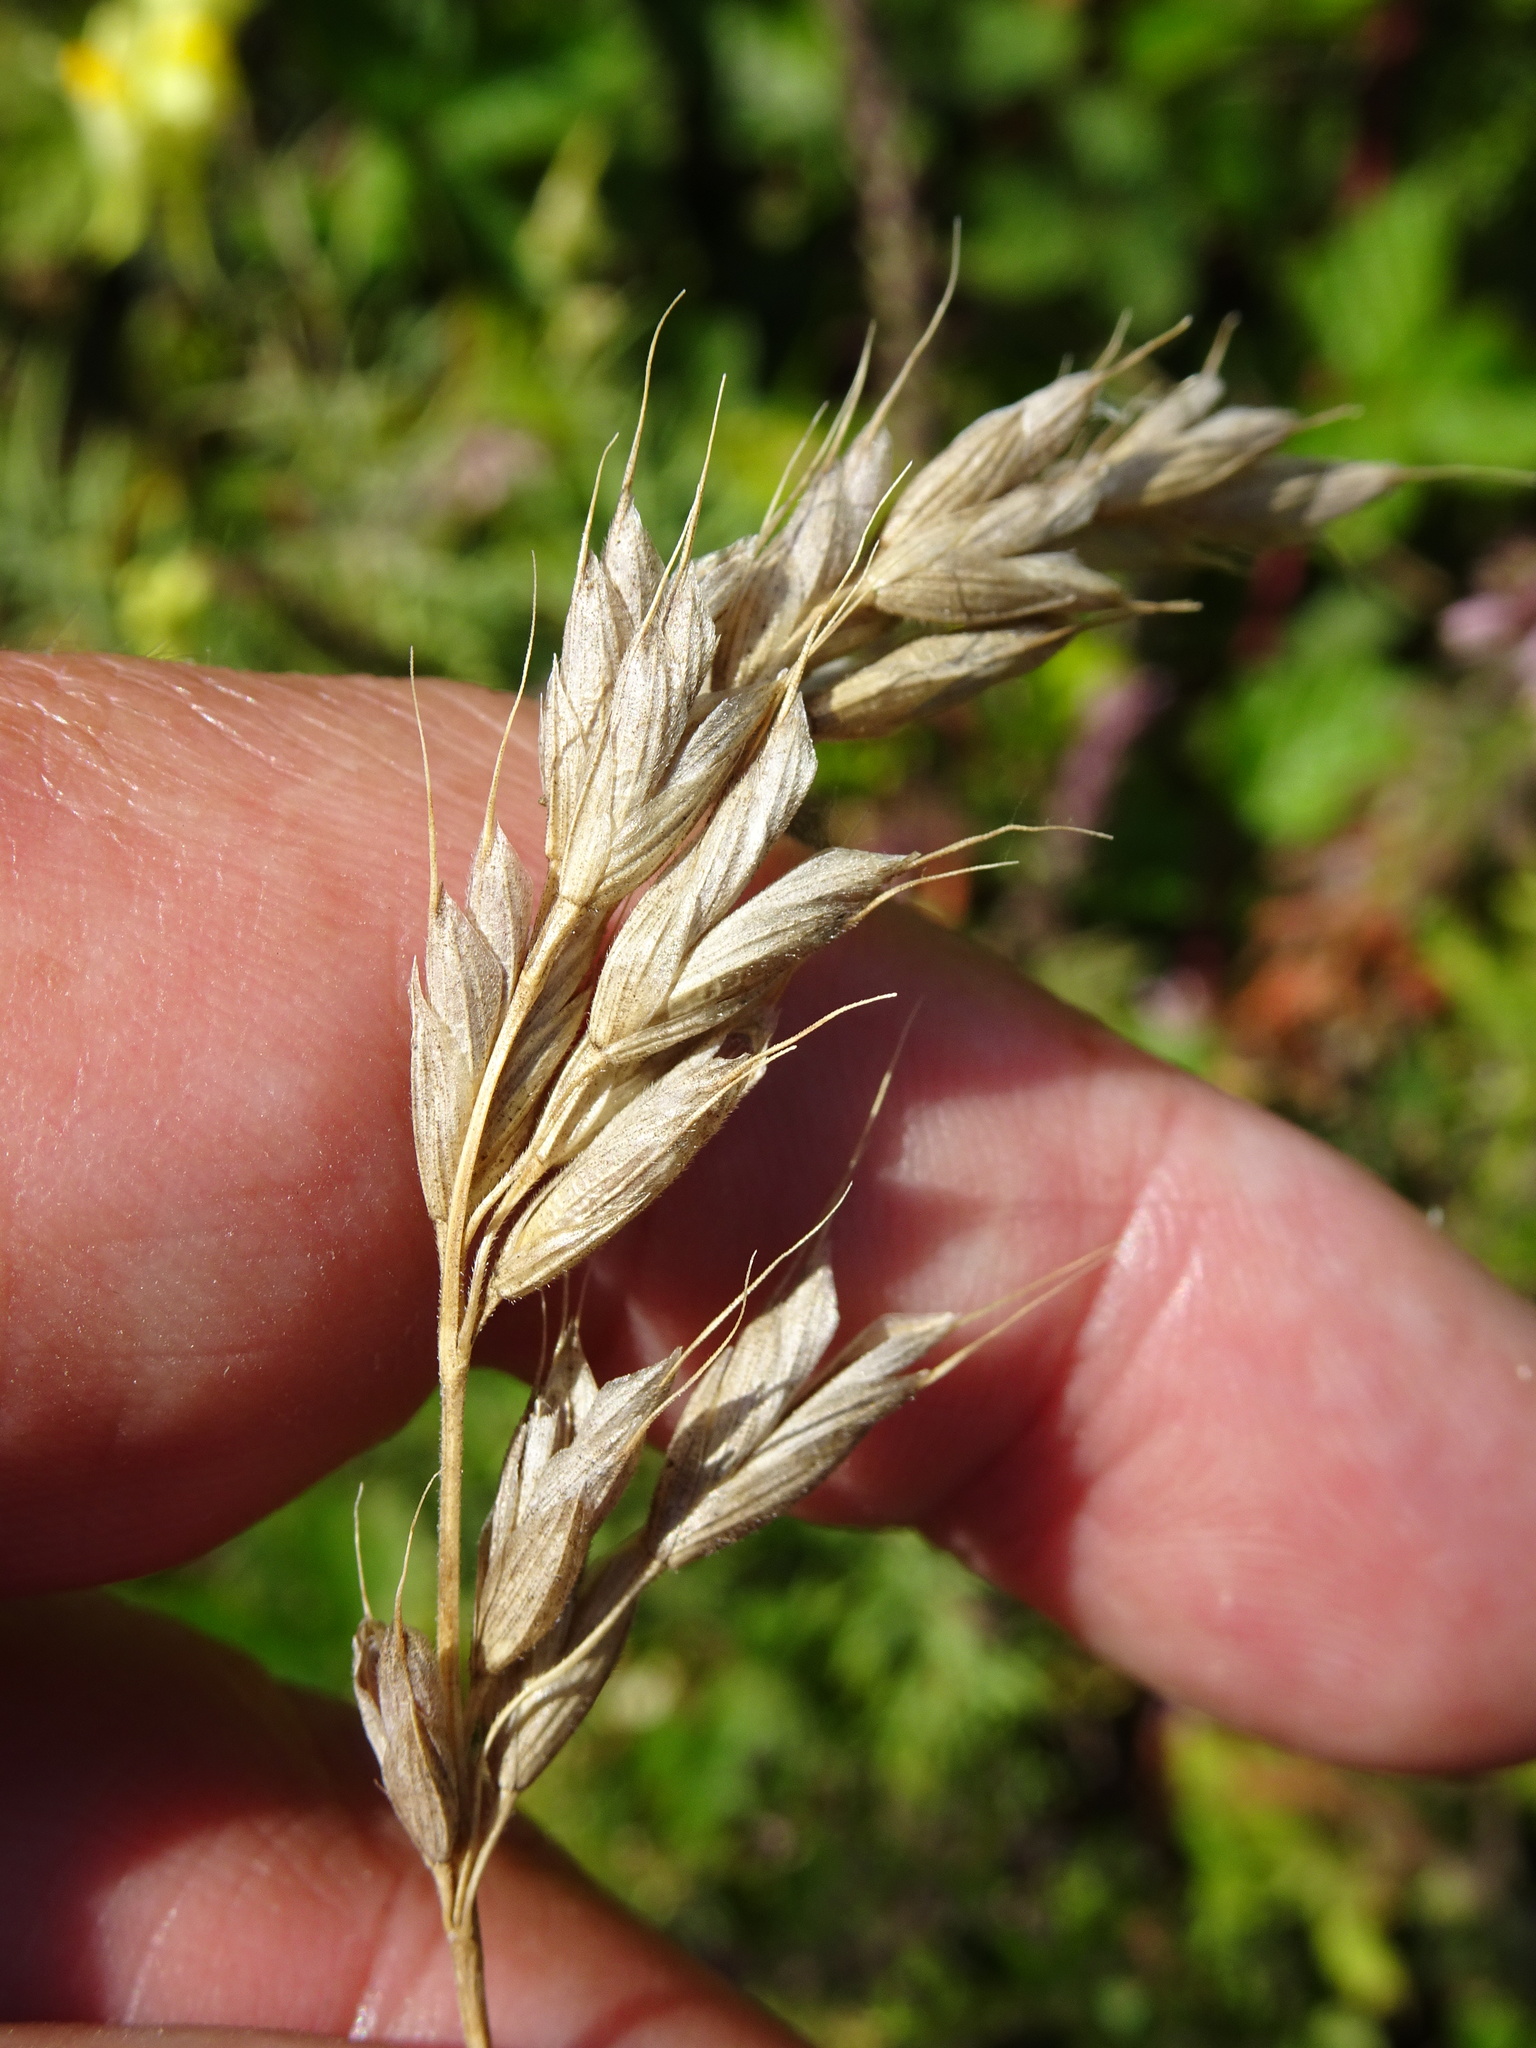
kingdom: Plantae
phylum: Tracheophyta
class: Liliopsida
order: Poales
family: Poaceae
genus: Bromus
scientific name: Bromus hordeaceus
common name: Soft brome
